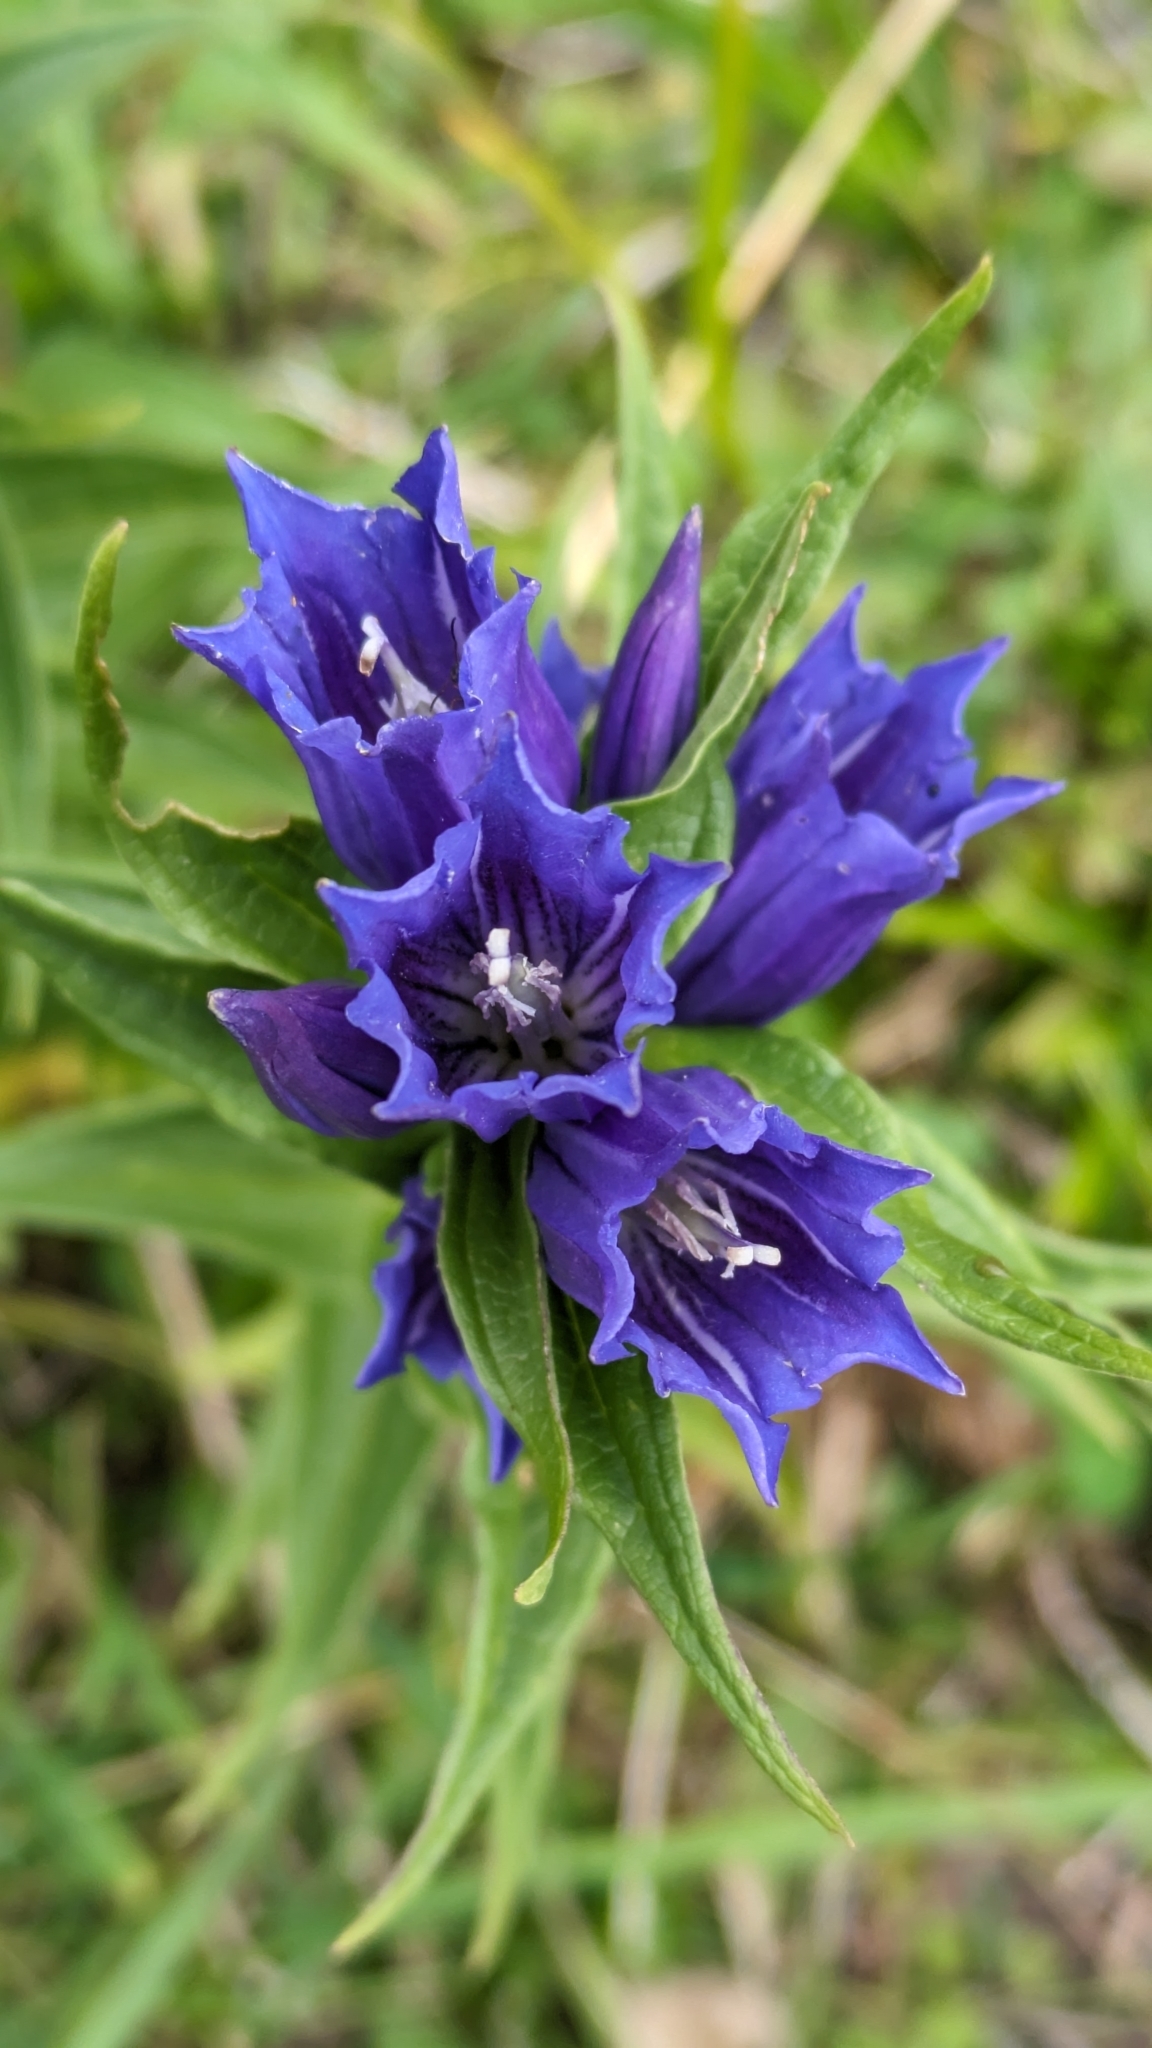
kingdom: Plantae
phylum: Tracheophyta
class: Magnoliopsida
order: Gentianales
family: Gentianaceae
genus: Gentiana
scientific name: Gentiana asclepiadea
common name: Willow gentian
